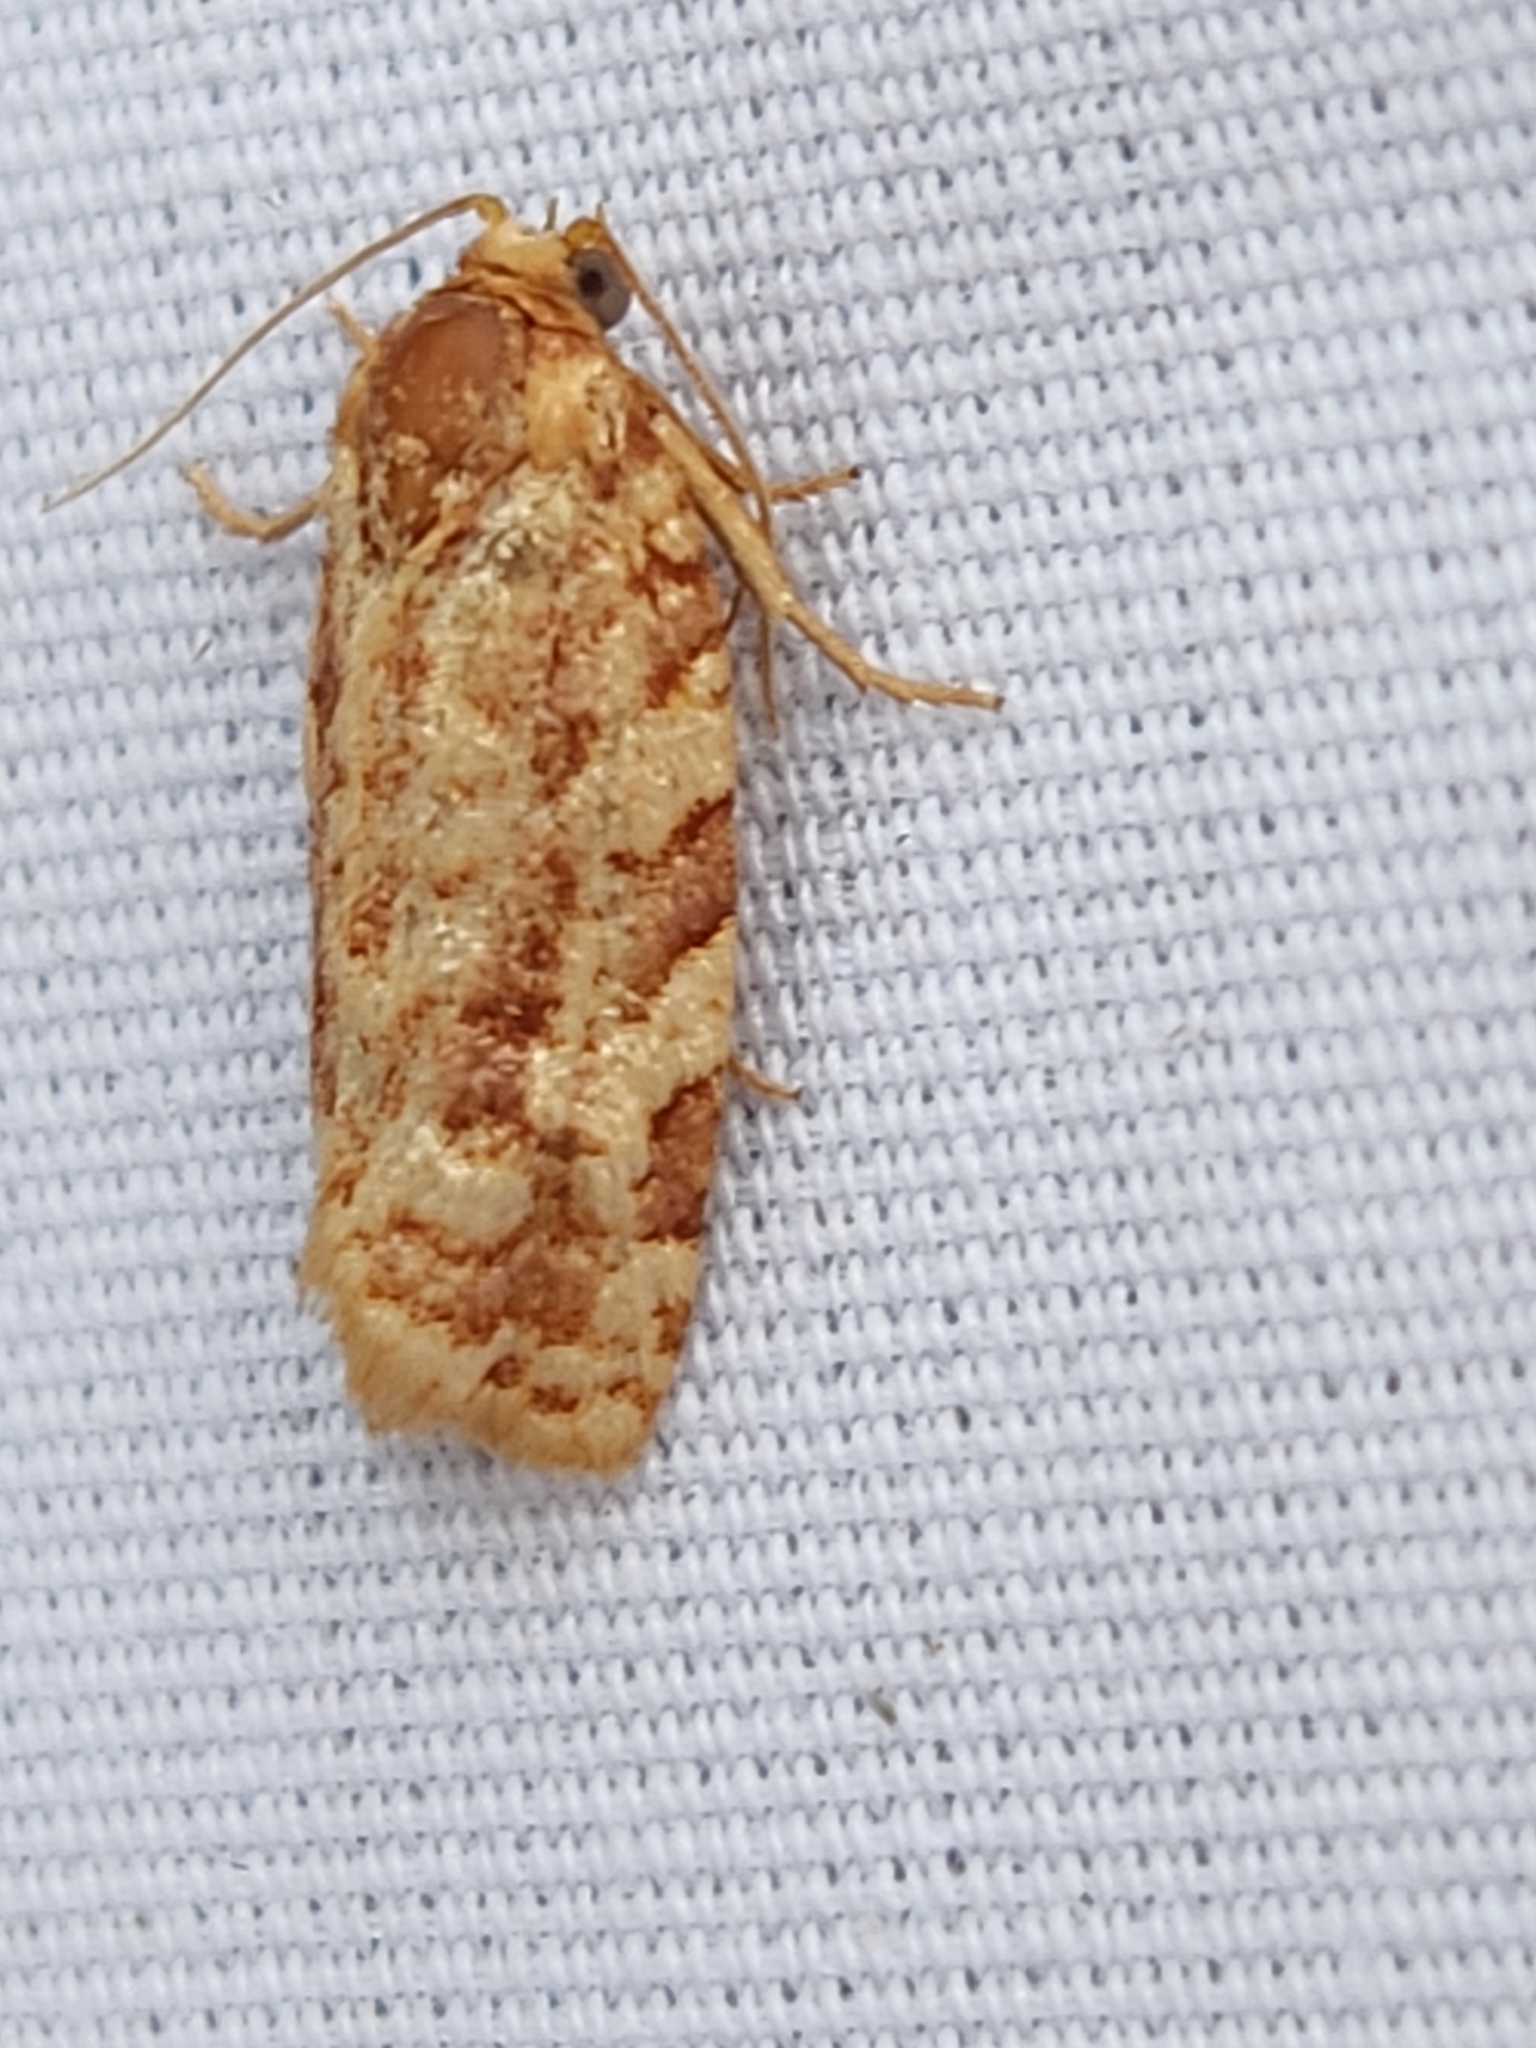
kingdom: Animalia
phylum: Arthropoda
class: Insecta
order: Lepidoptera
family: Tortricidae
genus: Choristoneura
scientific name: Choristoneura houstonana
